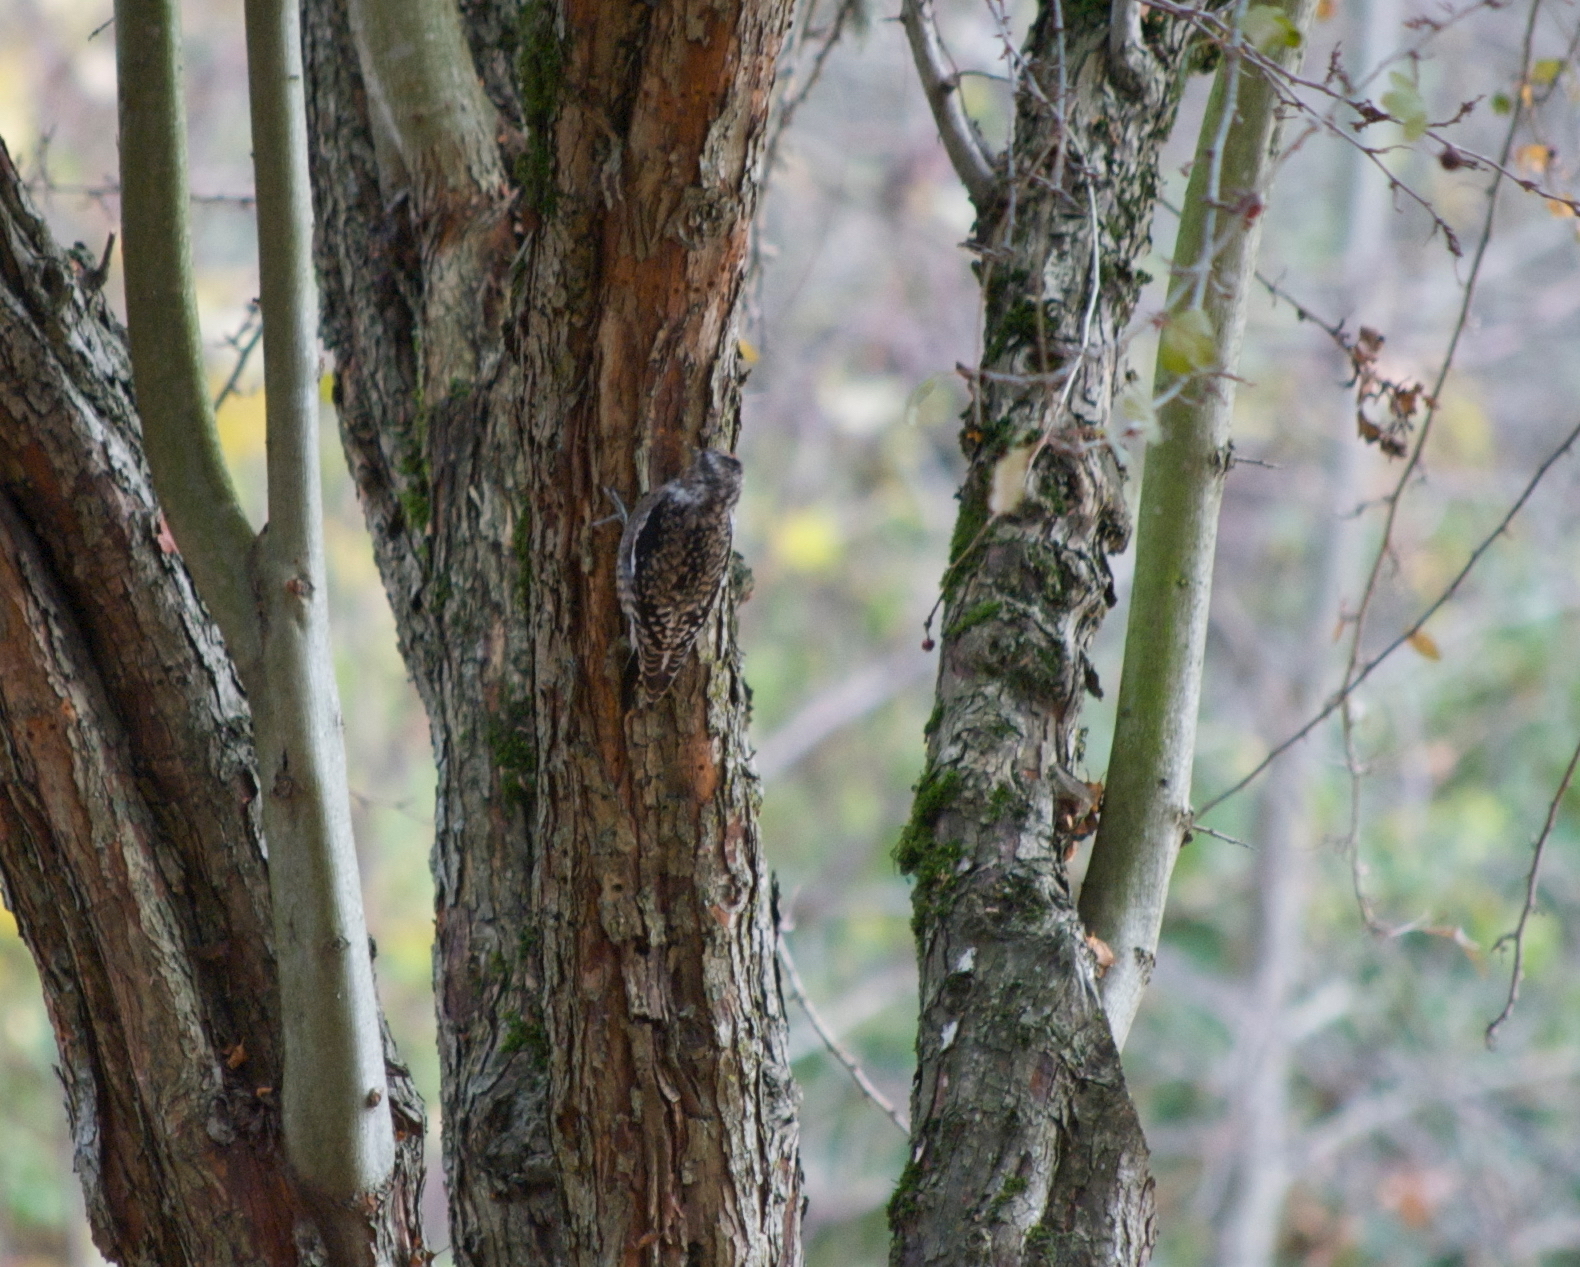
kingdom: Animalia
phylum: Chordata
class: Aves
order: Piciformes
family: Picidae
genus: Sphyrapicus
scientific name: Sphyrapicus varius
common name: Yellow-bellied sapsucker
